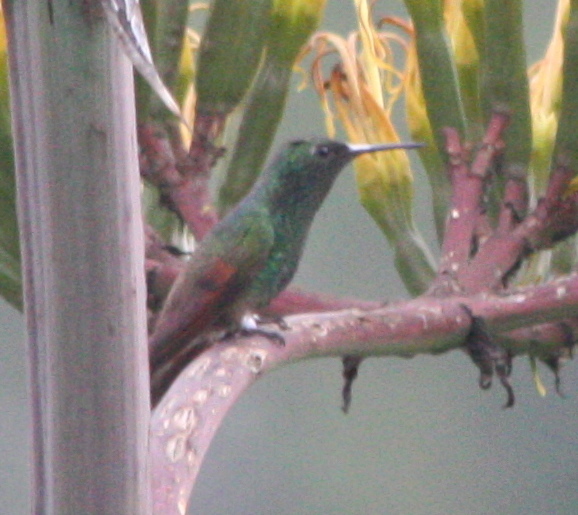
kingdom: Animalia
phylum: Chordata
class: Aves
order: Apodiformes
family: Trochilidae
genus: Saucerottia
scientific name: Saucerottia beryllina
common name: Berylline hummingbird
